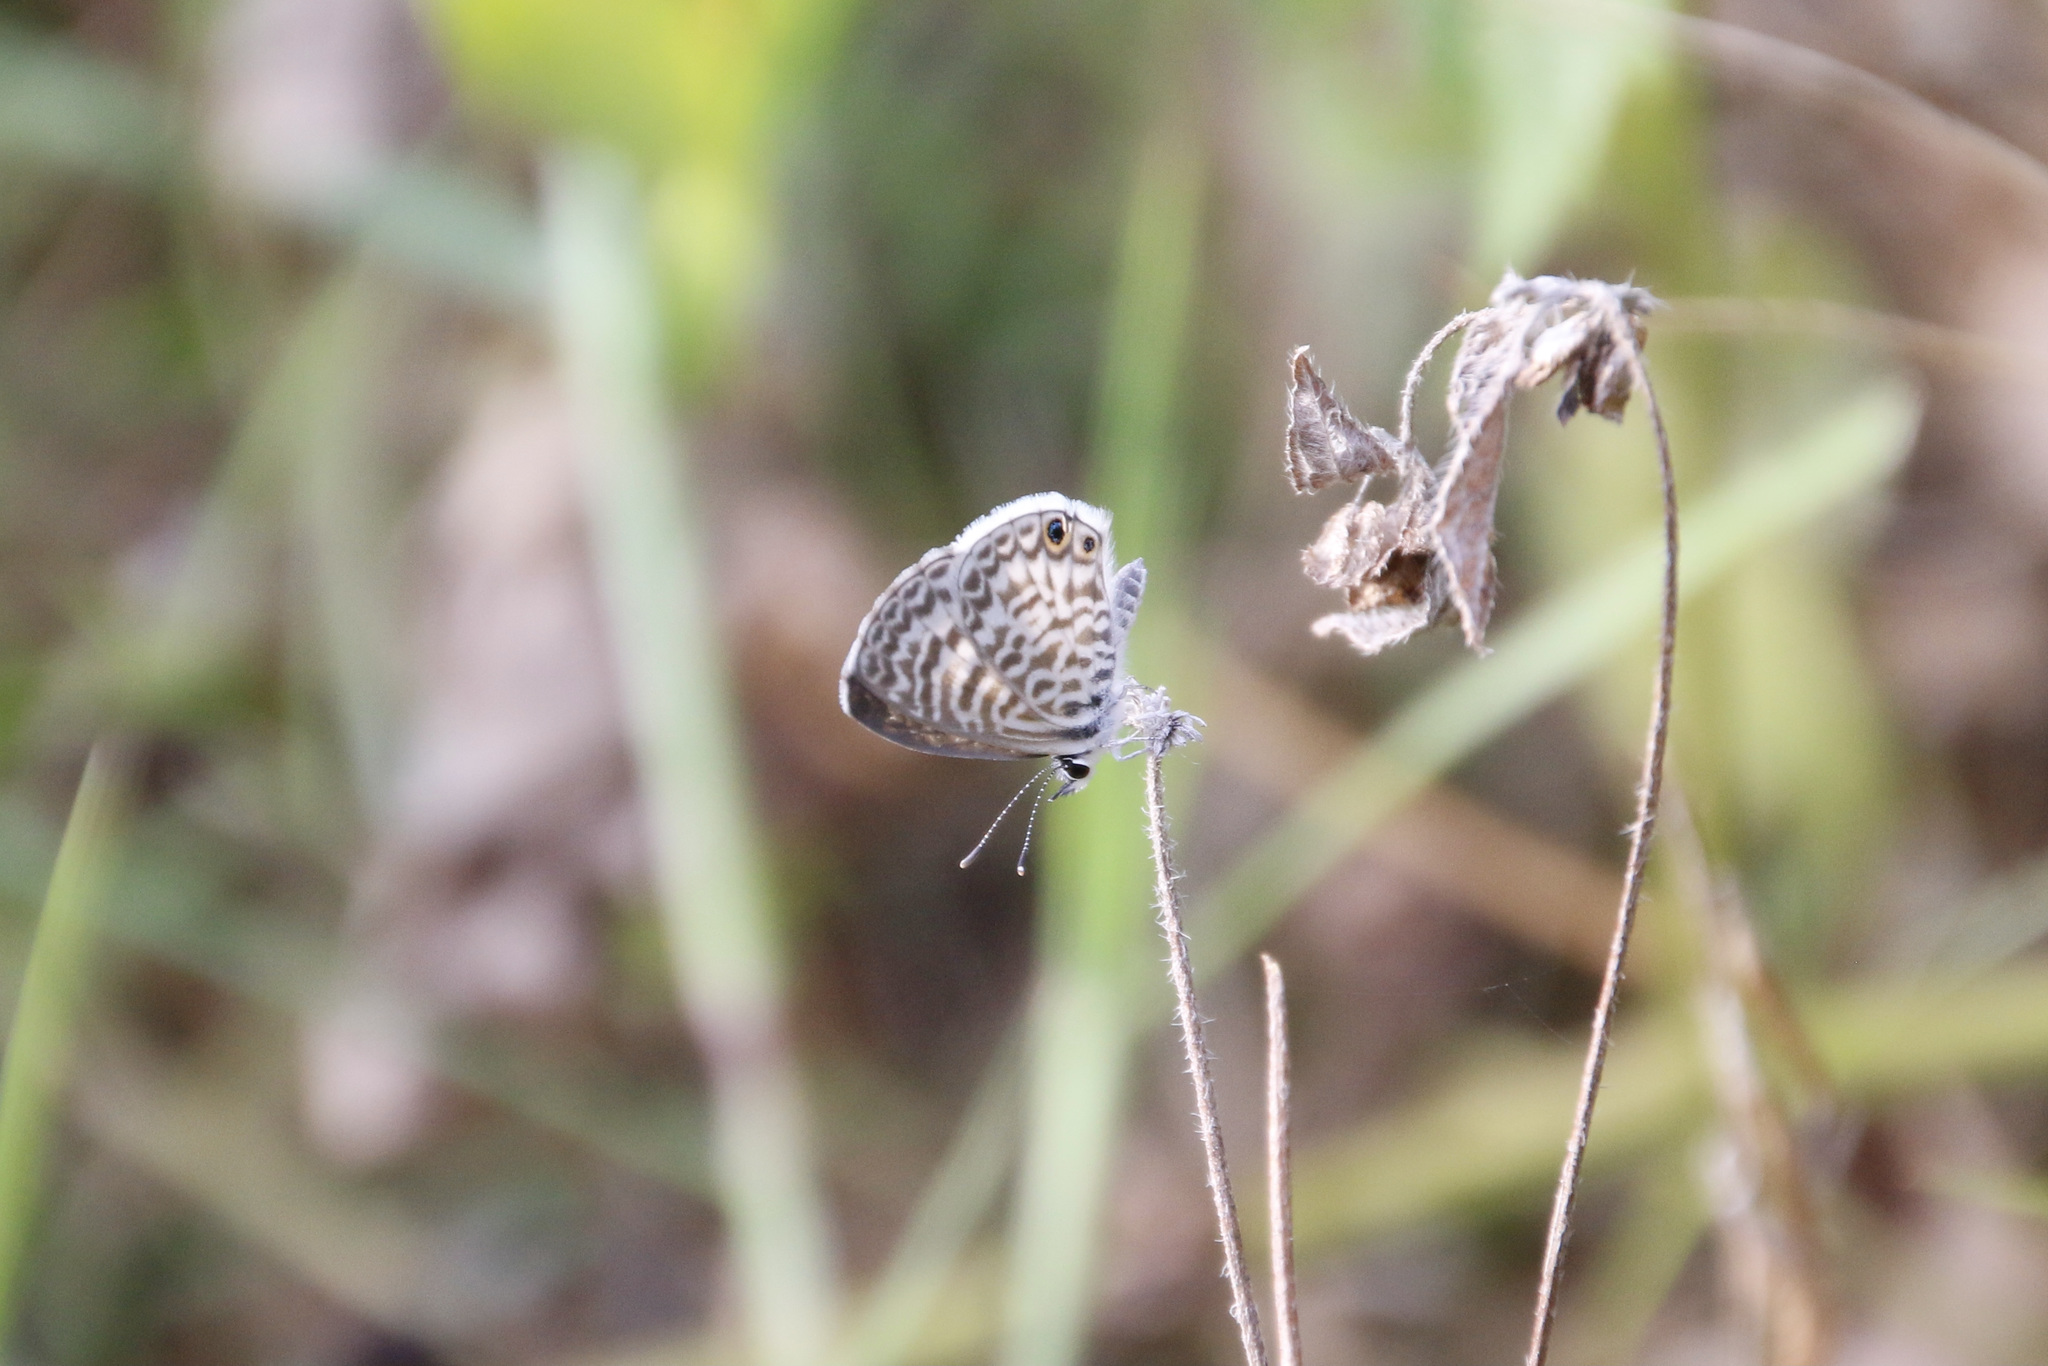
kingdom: Animalia
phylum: Arthropoda
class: Insecta
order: Lepidoptera
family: Lycaenidae
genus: Leptotes
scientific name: Leptotes cassius
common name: Cassius blue
